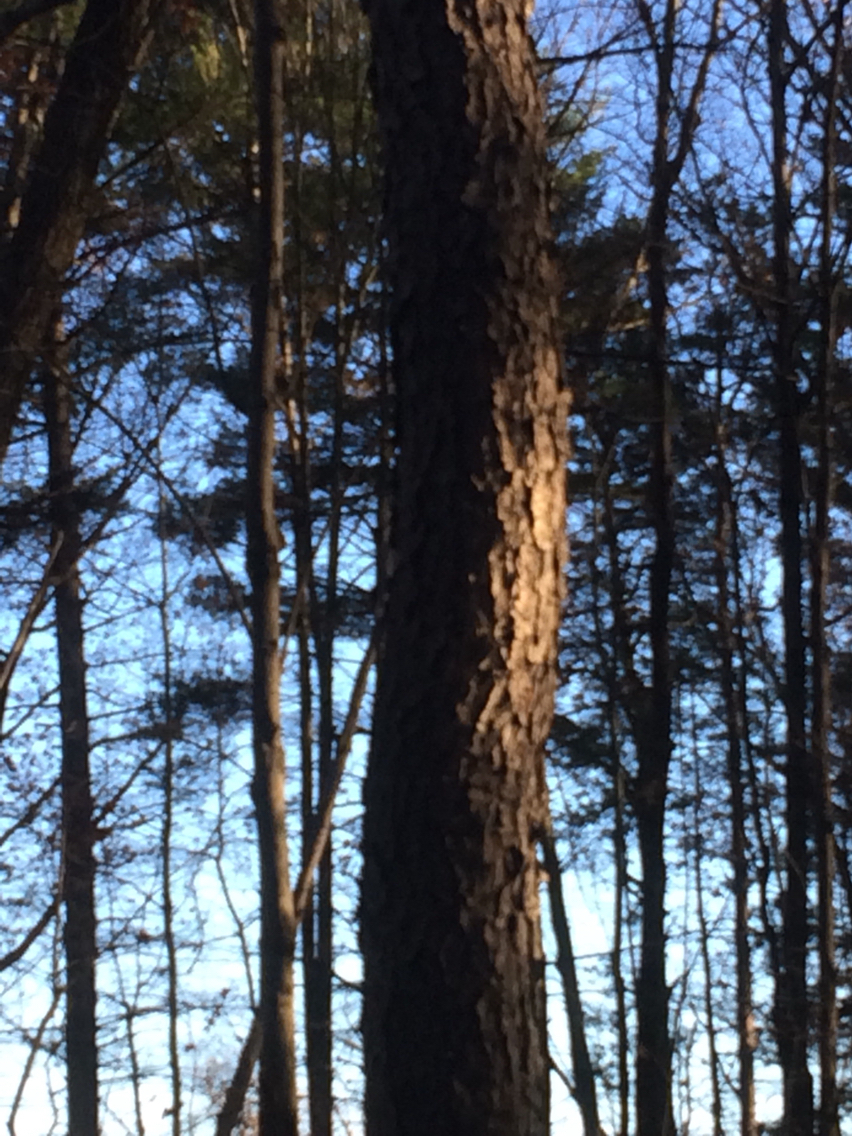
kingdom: Plantae
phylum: Tracheophyta
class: Magnoliopsida
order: Rosales
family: Rosaceae
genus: Prunus
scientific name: Prunus serotina
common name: Black cherry
